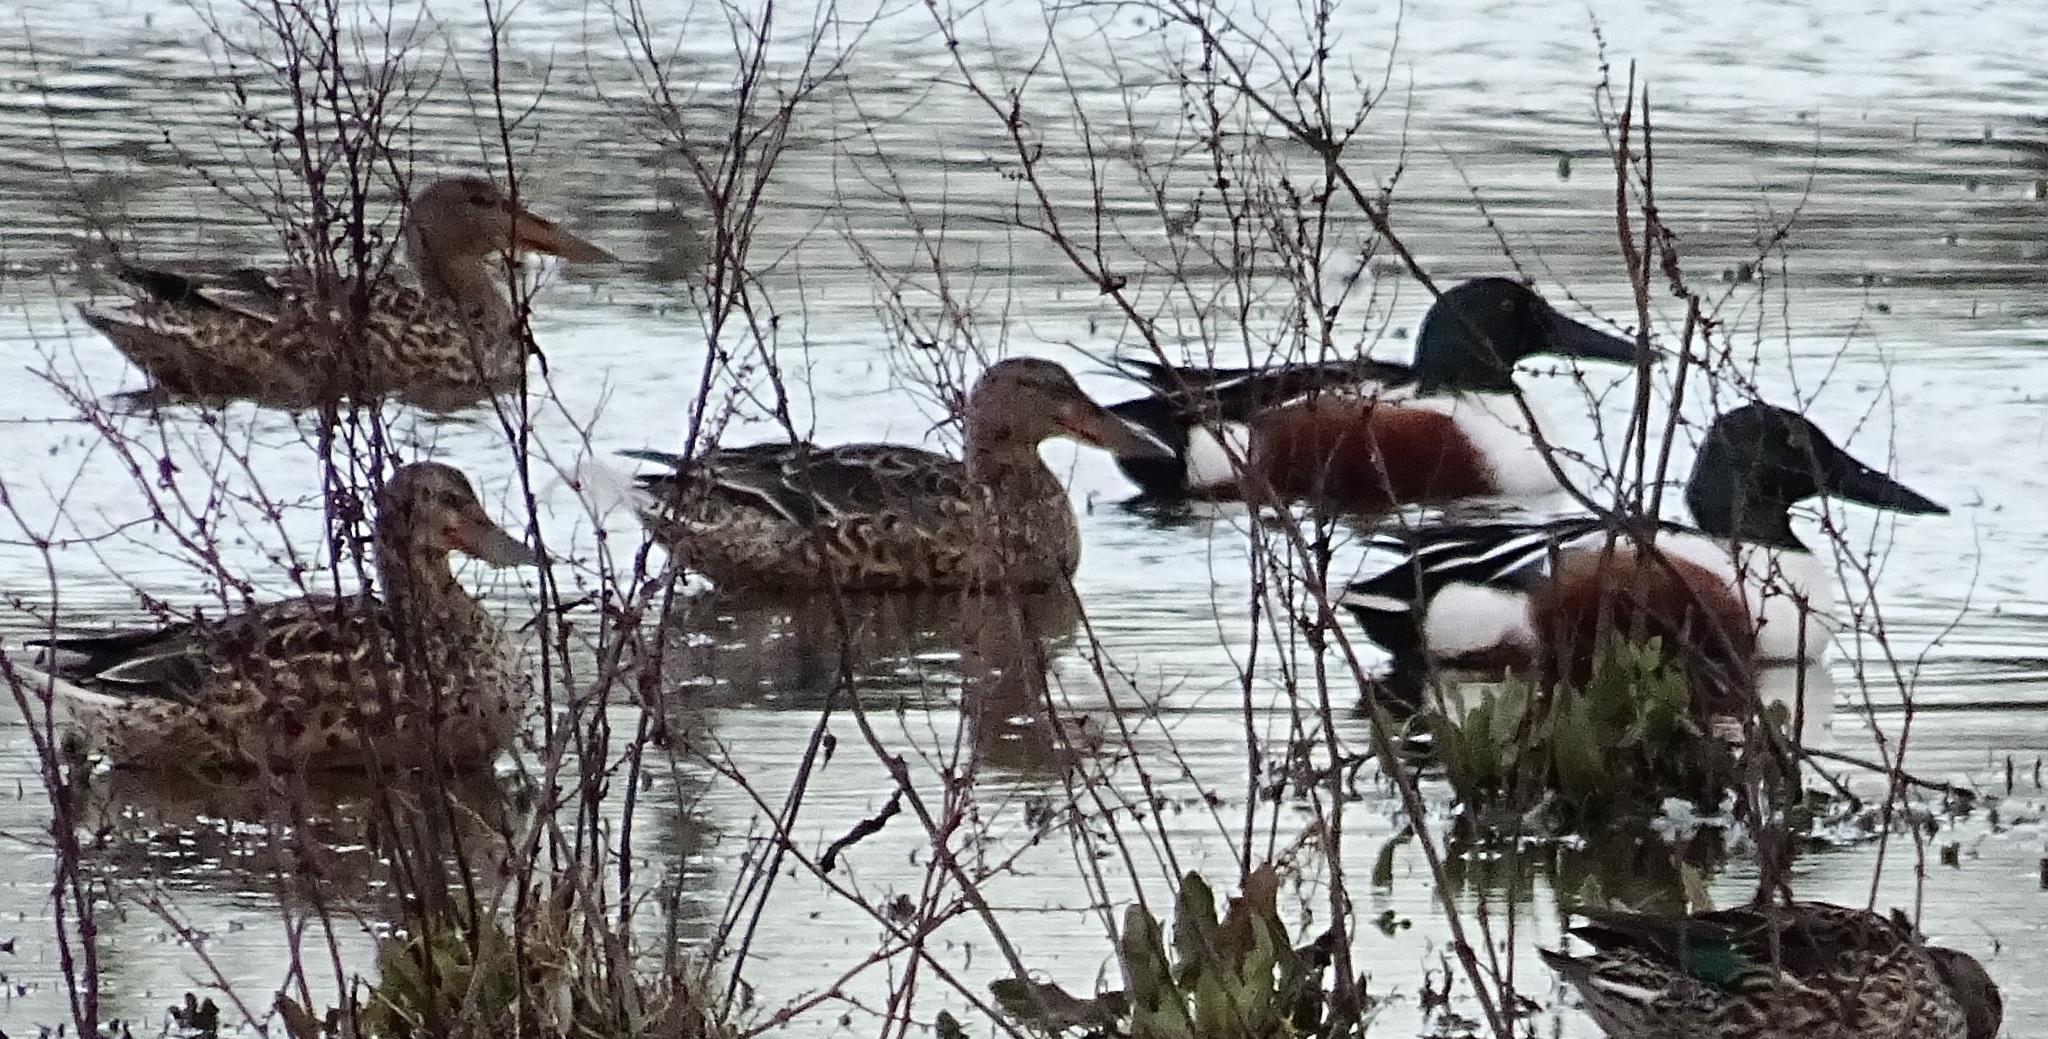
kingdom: Animalia
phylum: Chordata
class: Aves
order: Anseriformes
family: Anatidae
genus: Spatula
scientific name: Spatula clypeata
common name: Northern shoveler
